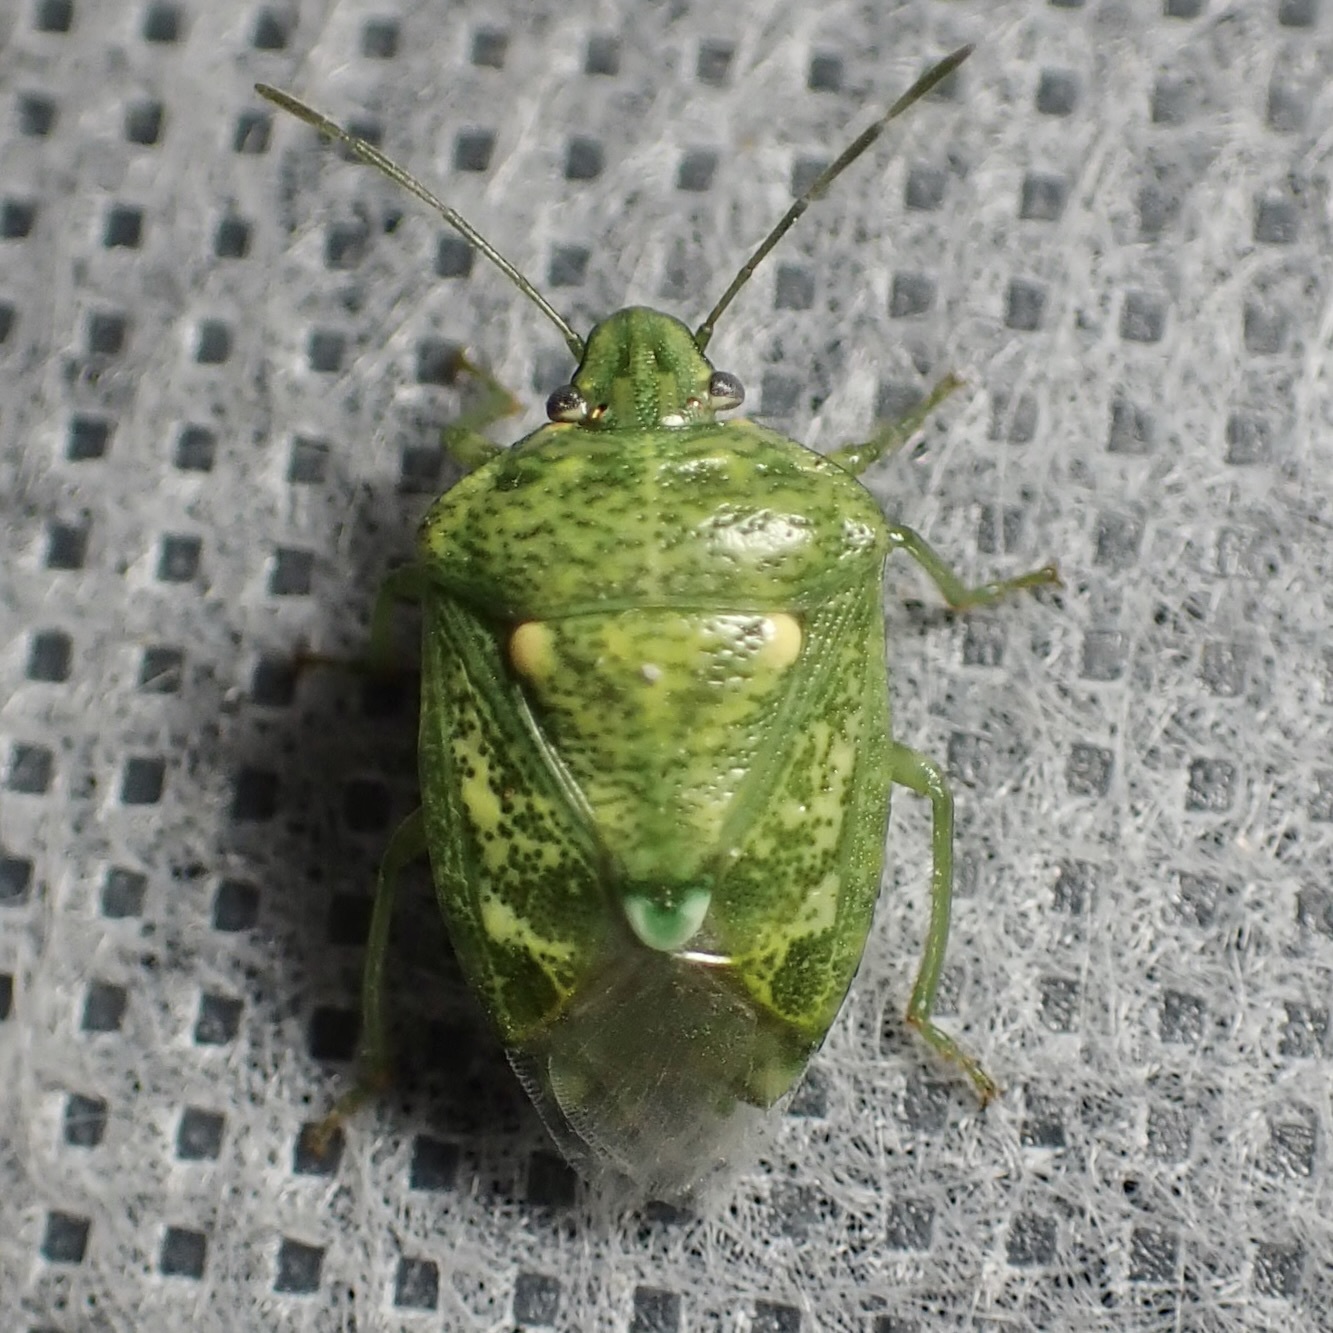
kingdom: Animalia
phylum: Arthropoda
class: Insecta
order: Hemiptera
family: Pentatomidae
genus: Banasa
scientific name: Banasa euchlora
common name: Cedar berry bug
